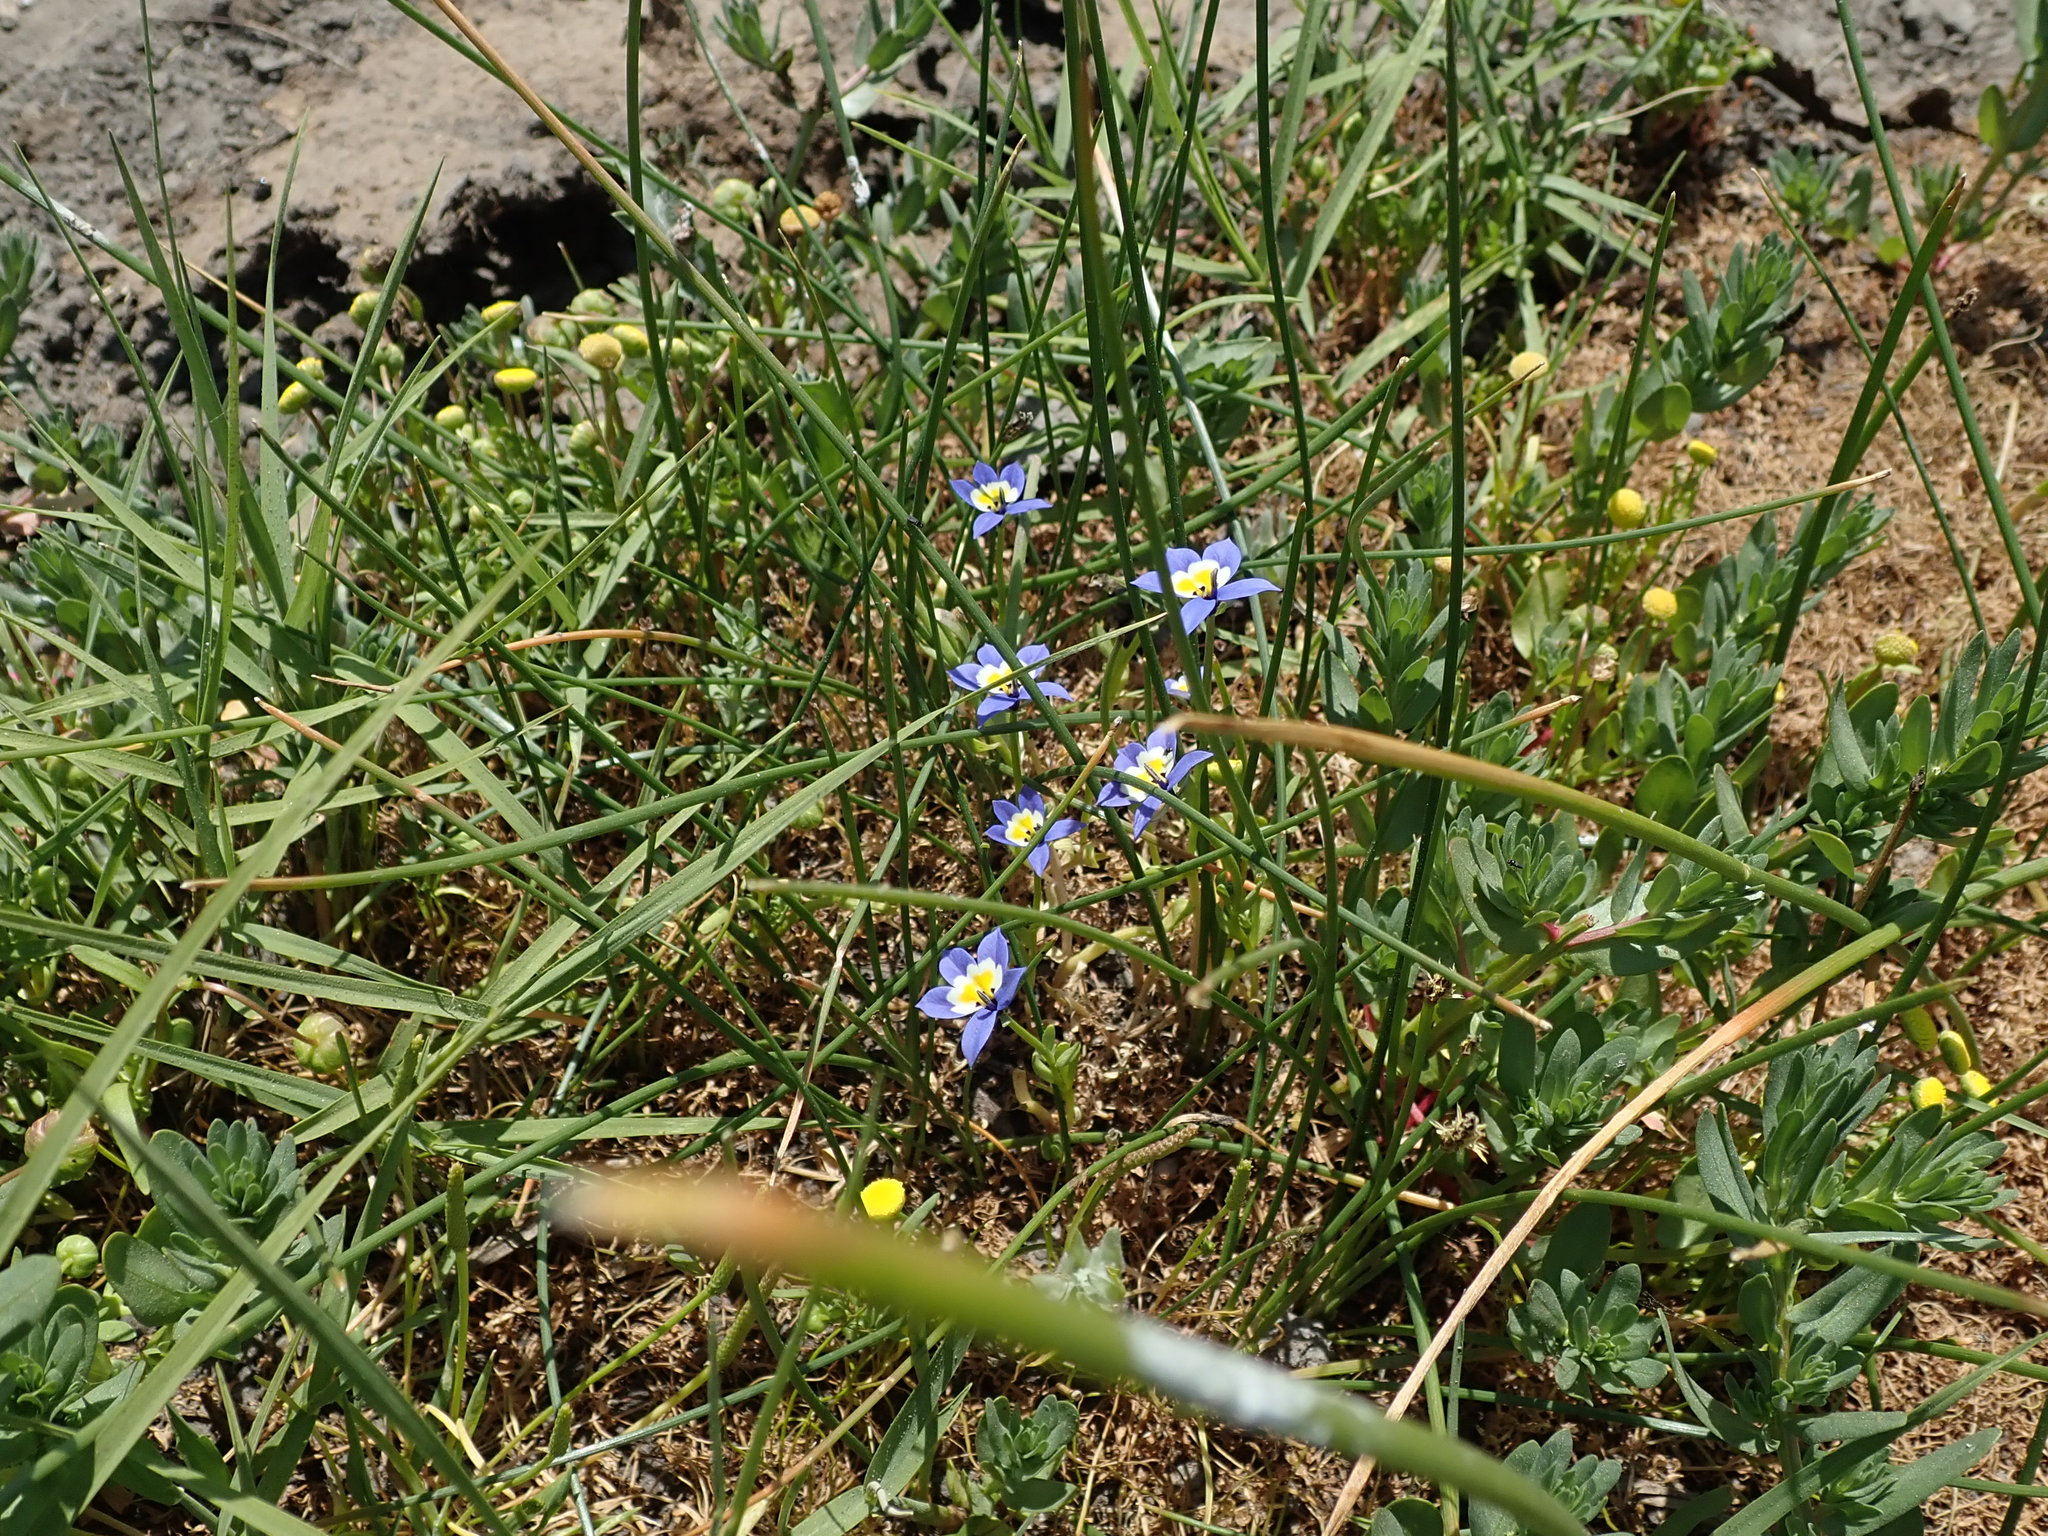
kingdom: Plantae
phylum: Tracheophyta
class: Magnoliopsida
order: Asterales
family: Campanulaceae
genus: Downingia
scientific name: Downingia pulchella
